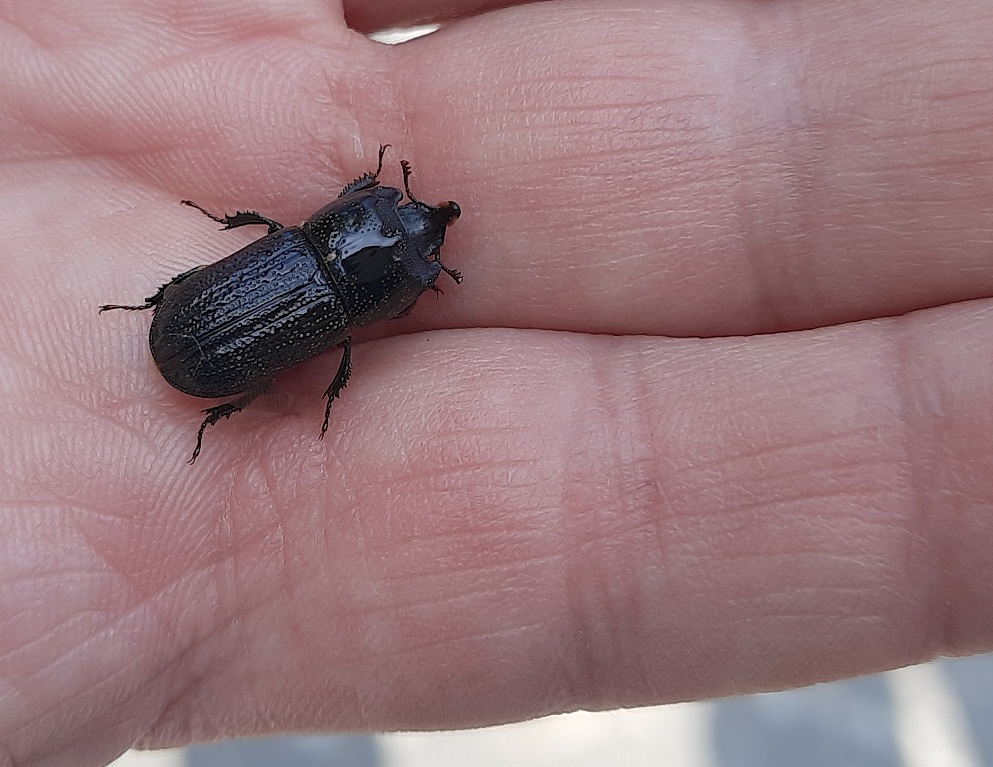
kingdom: Animalia
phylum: Arthropoda
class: Insecta
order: Coleoptera
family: Lucanidae
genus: Sinodendron
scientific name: Sinodendron cylindricum
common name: Rhinoceros beetle
